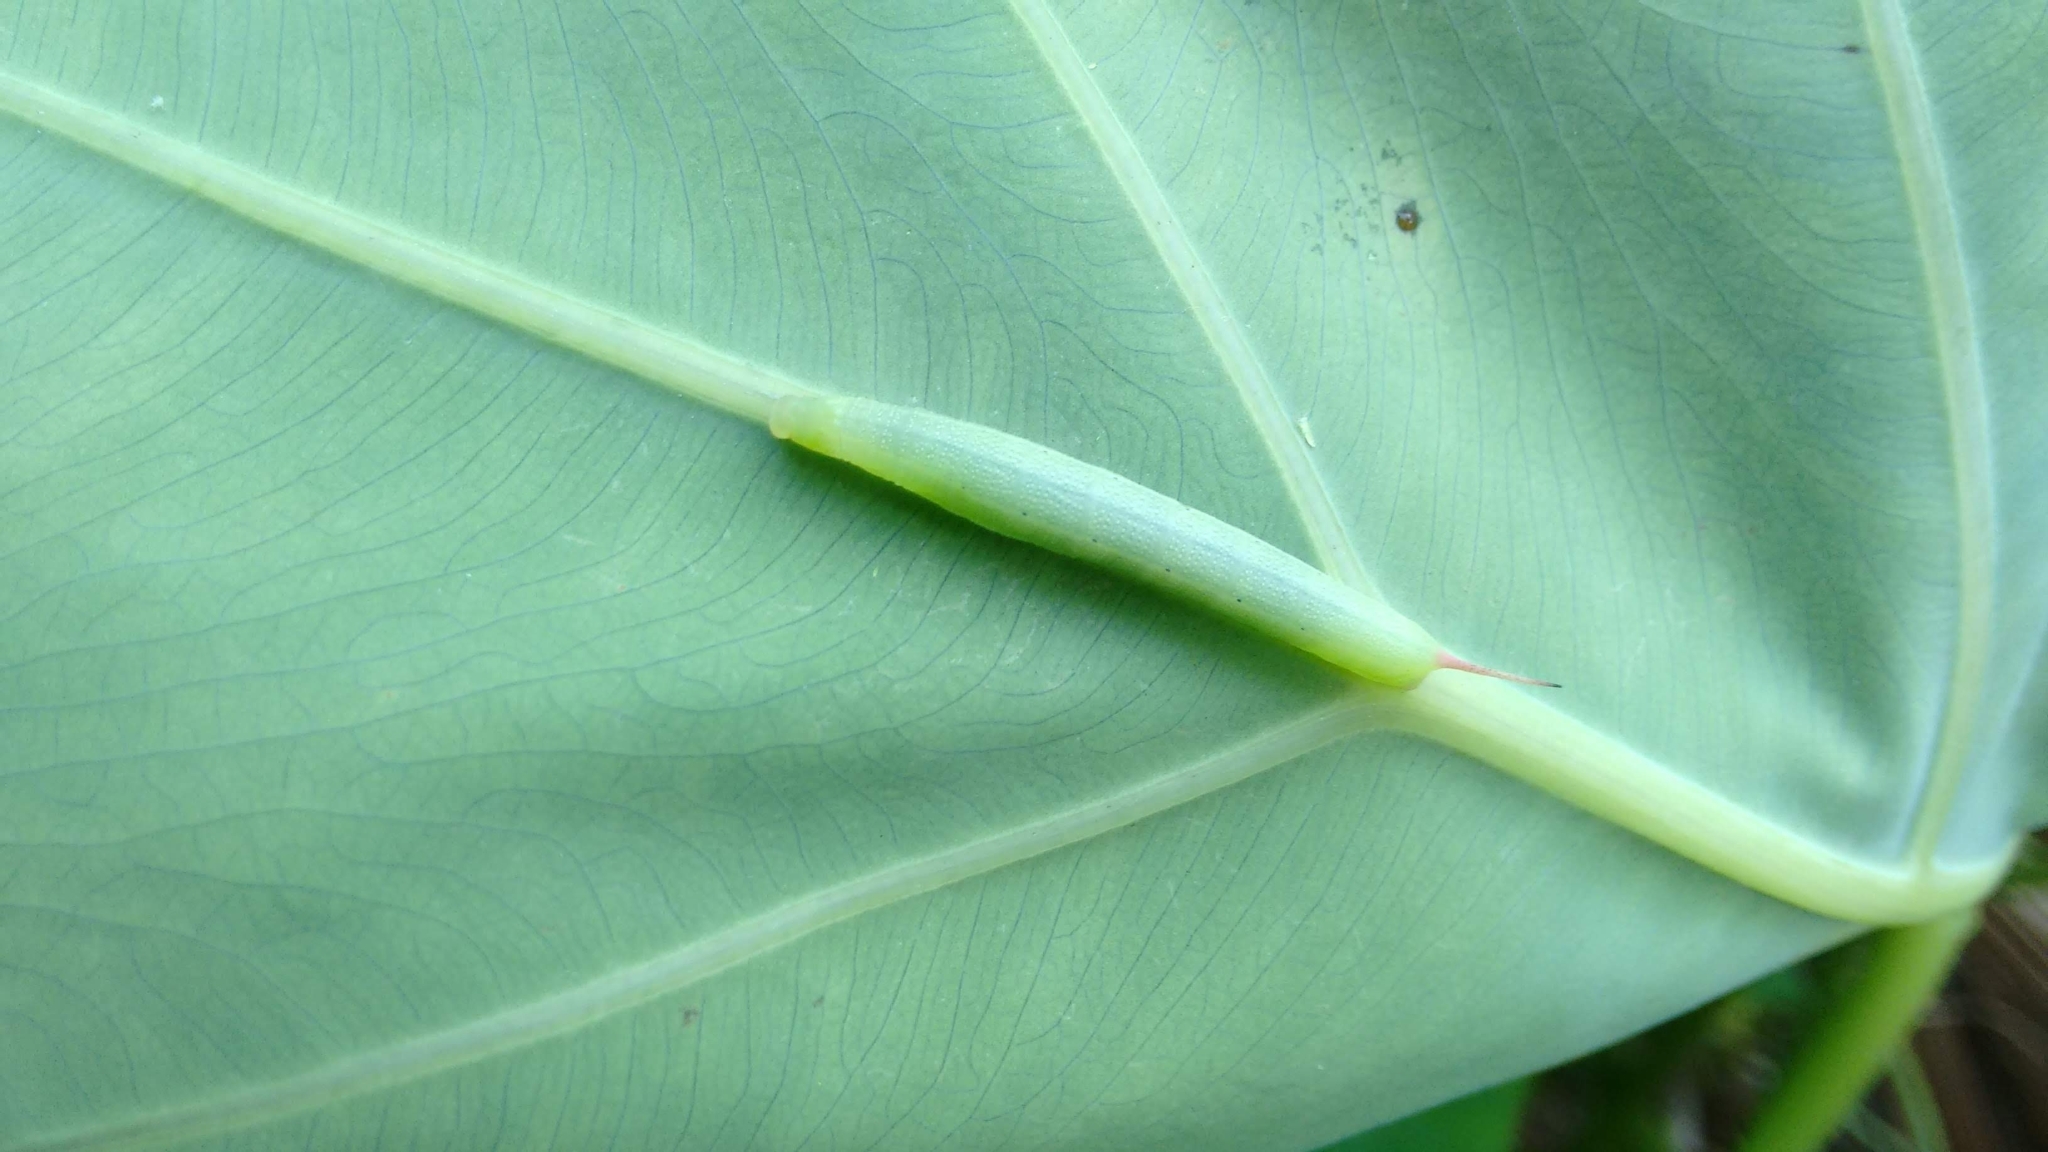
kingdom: Animalia
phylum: Arthropoda
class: Insecta
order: Lepidoptera
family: Sphingidae
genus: Theretra
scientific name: Theretra silhetensis
